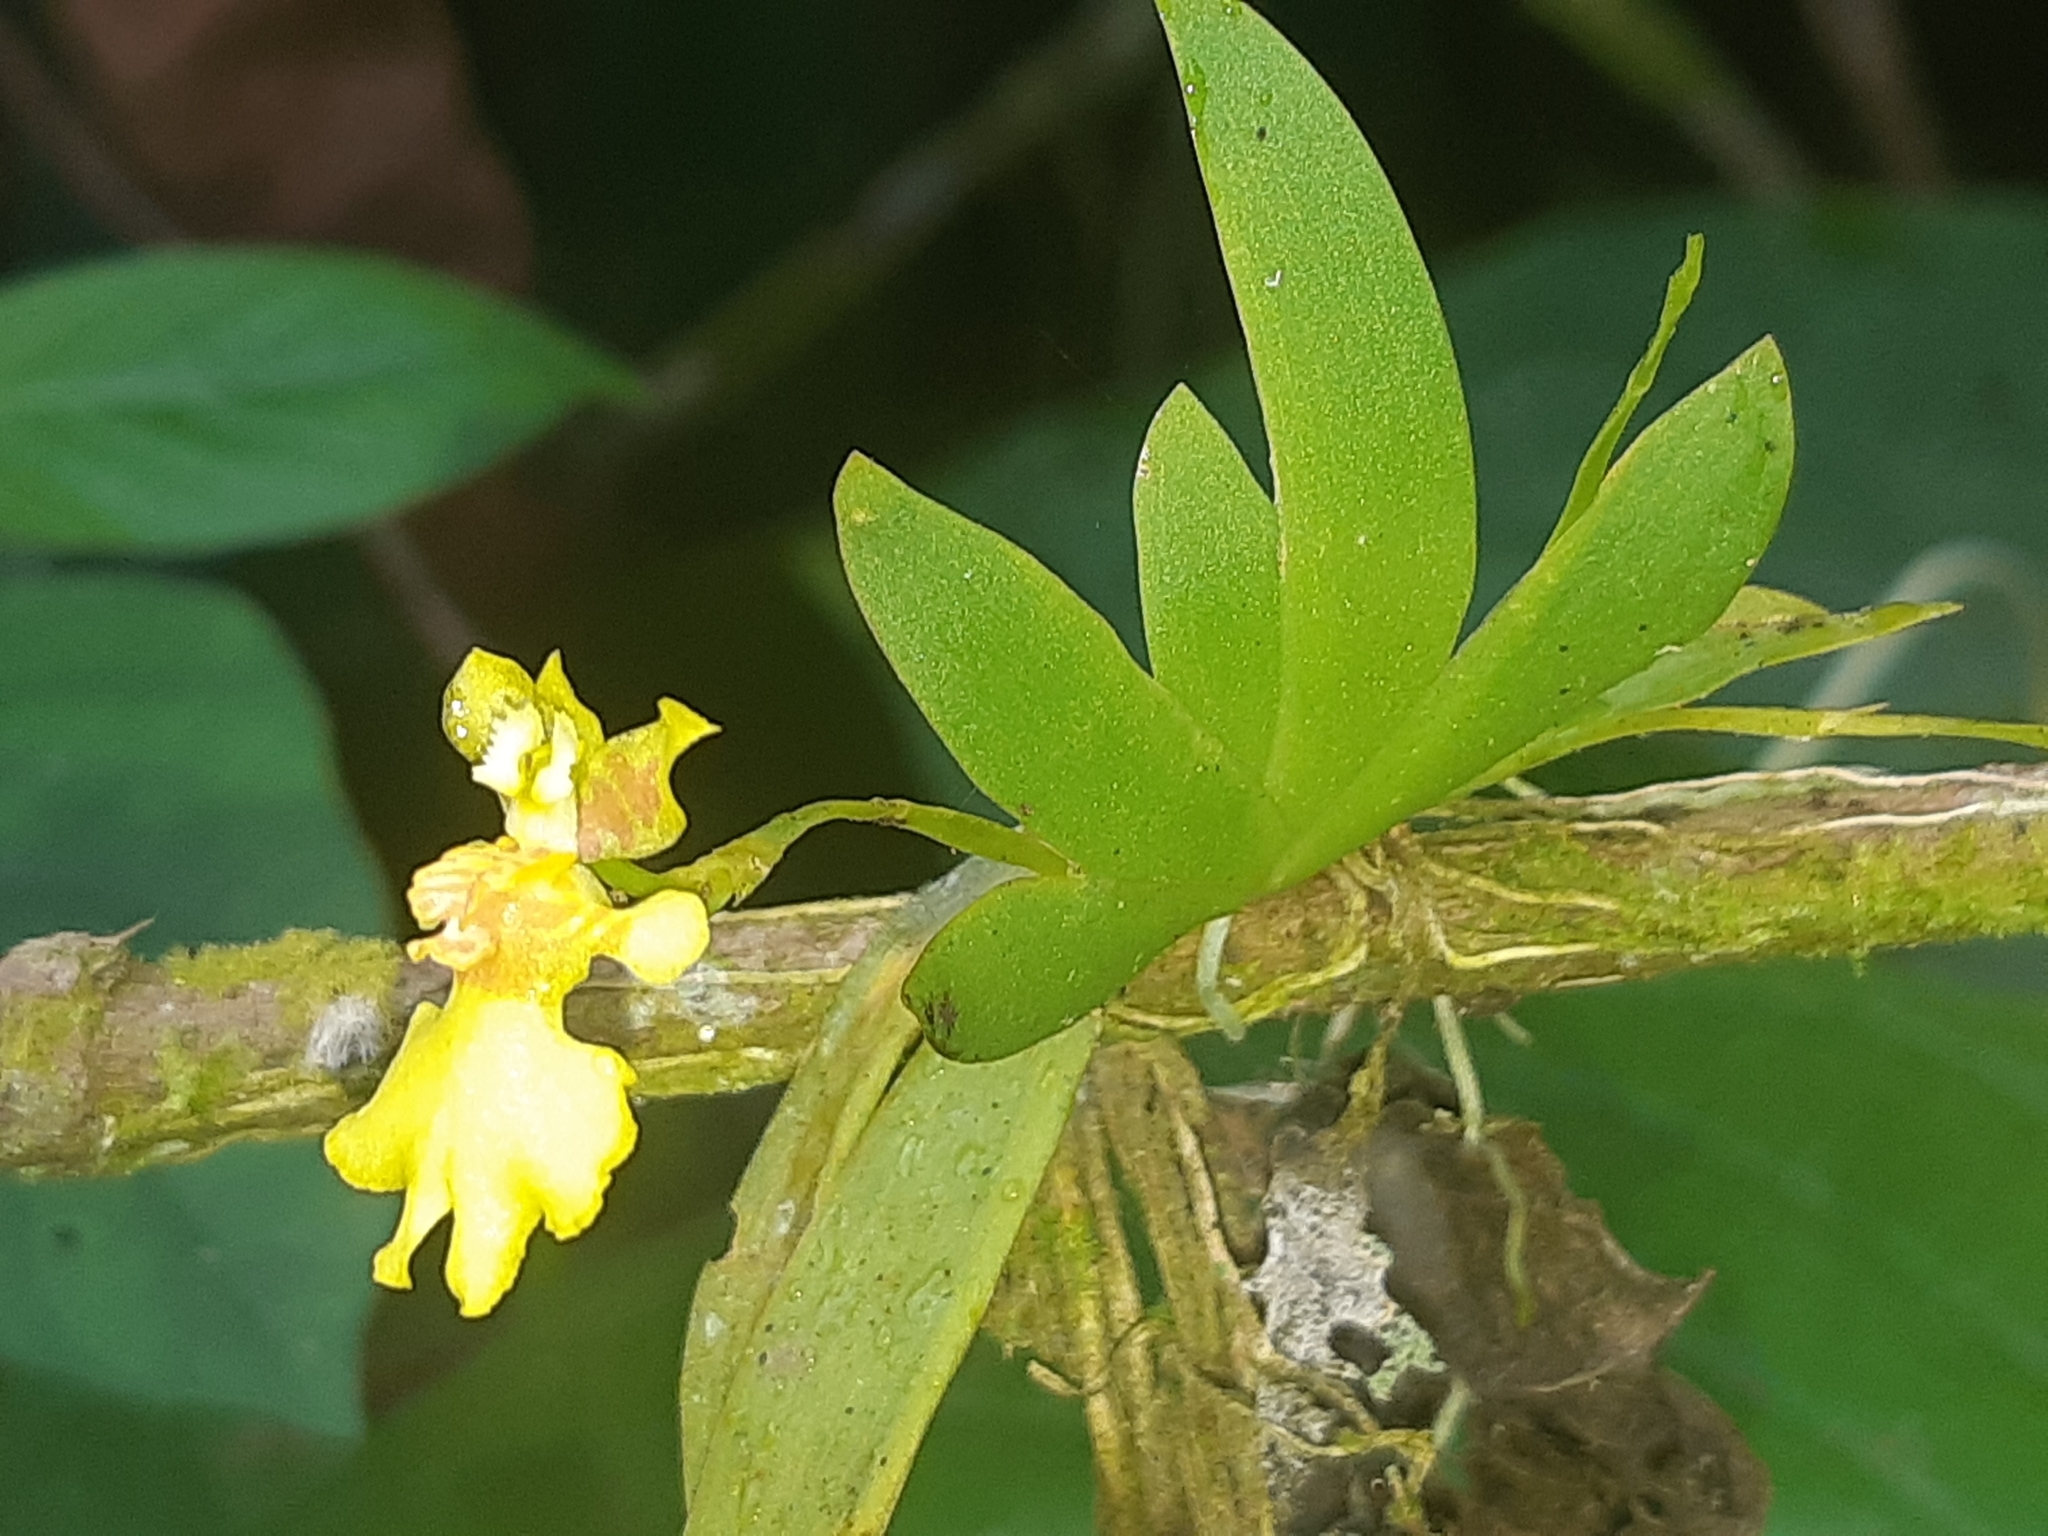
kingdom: Plantae
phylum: Tracheophyta
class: Liliopsida
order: Asparagales
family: Orchidaceae
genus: Erycina
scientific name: Erycina pusilla
